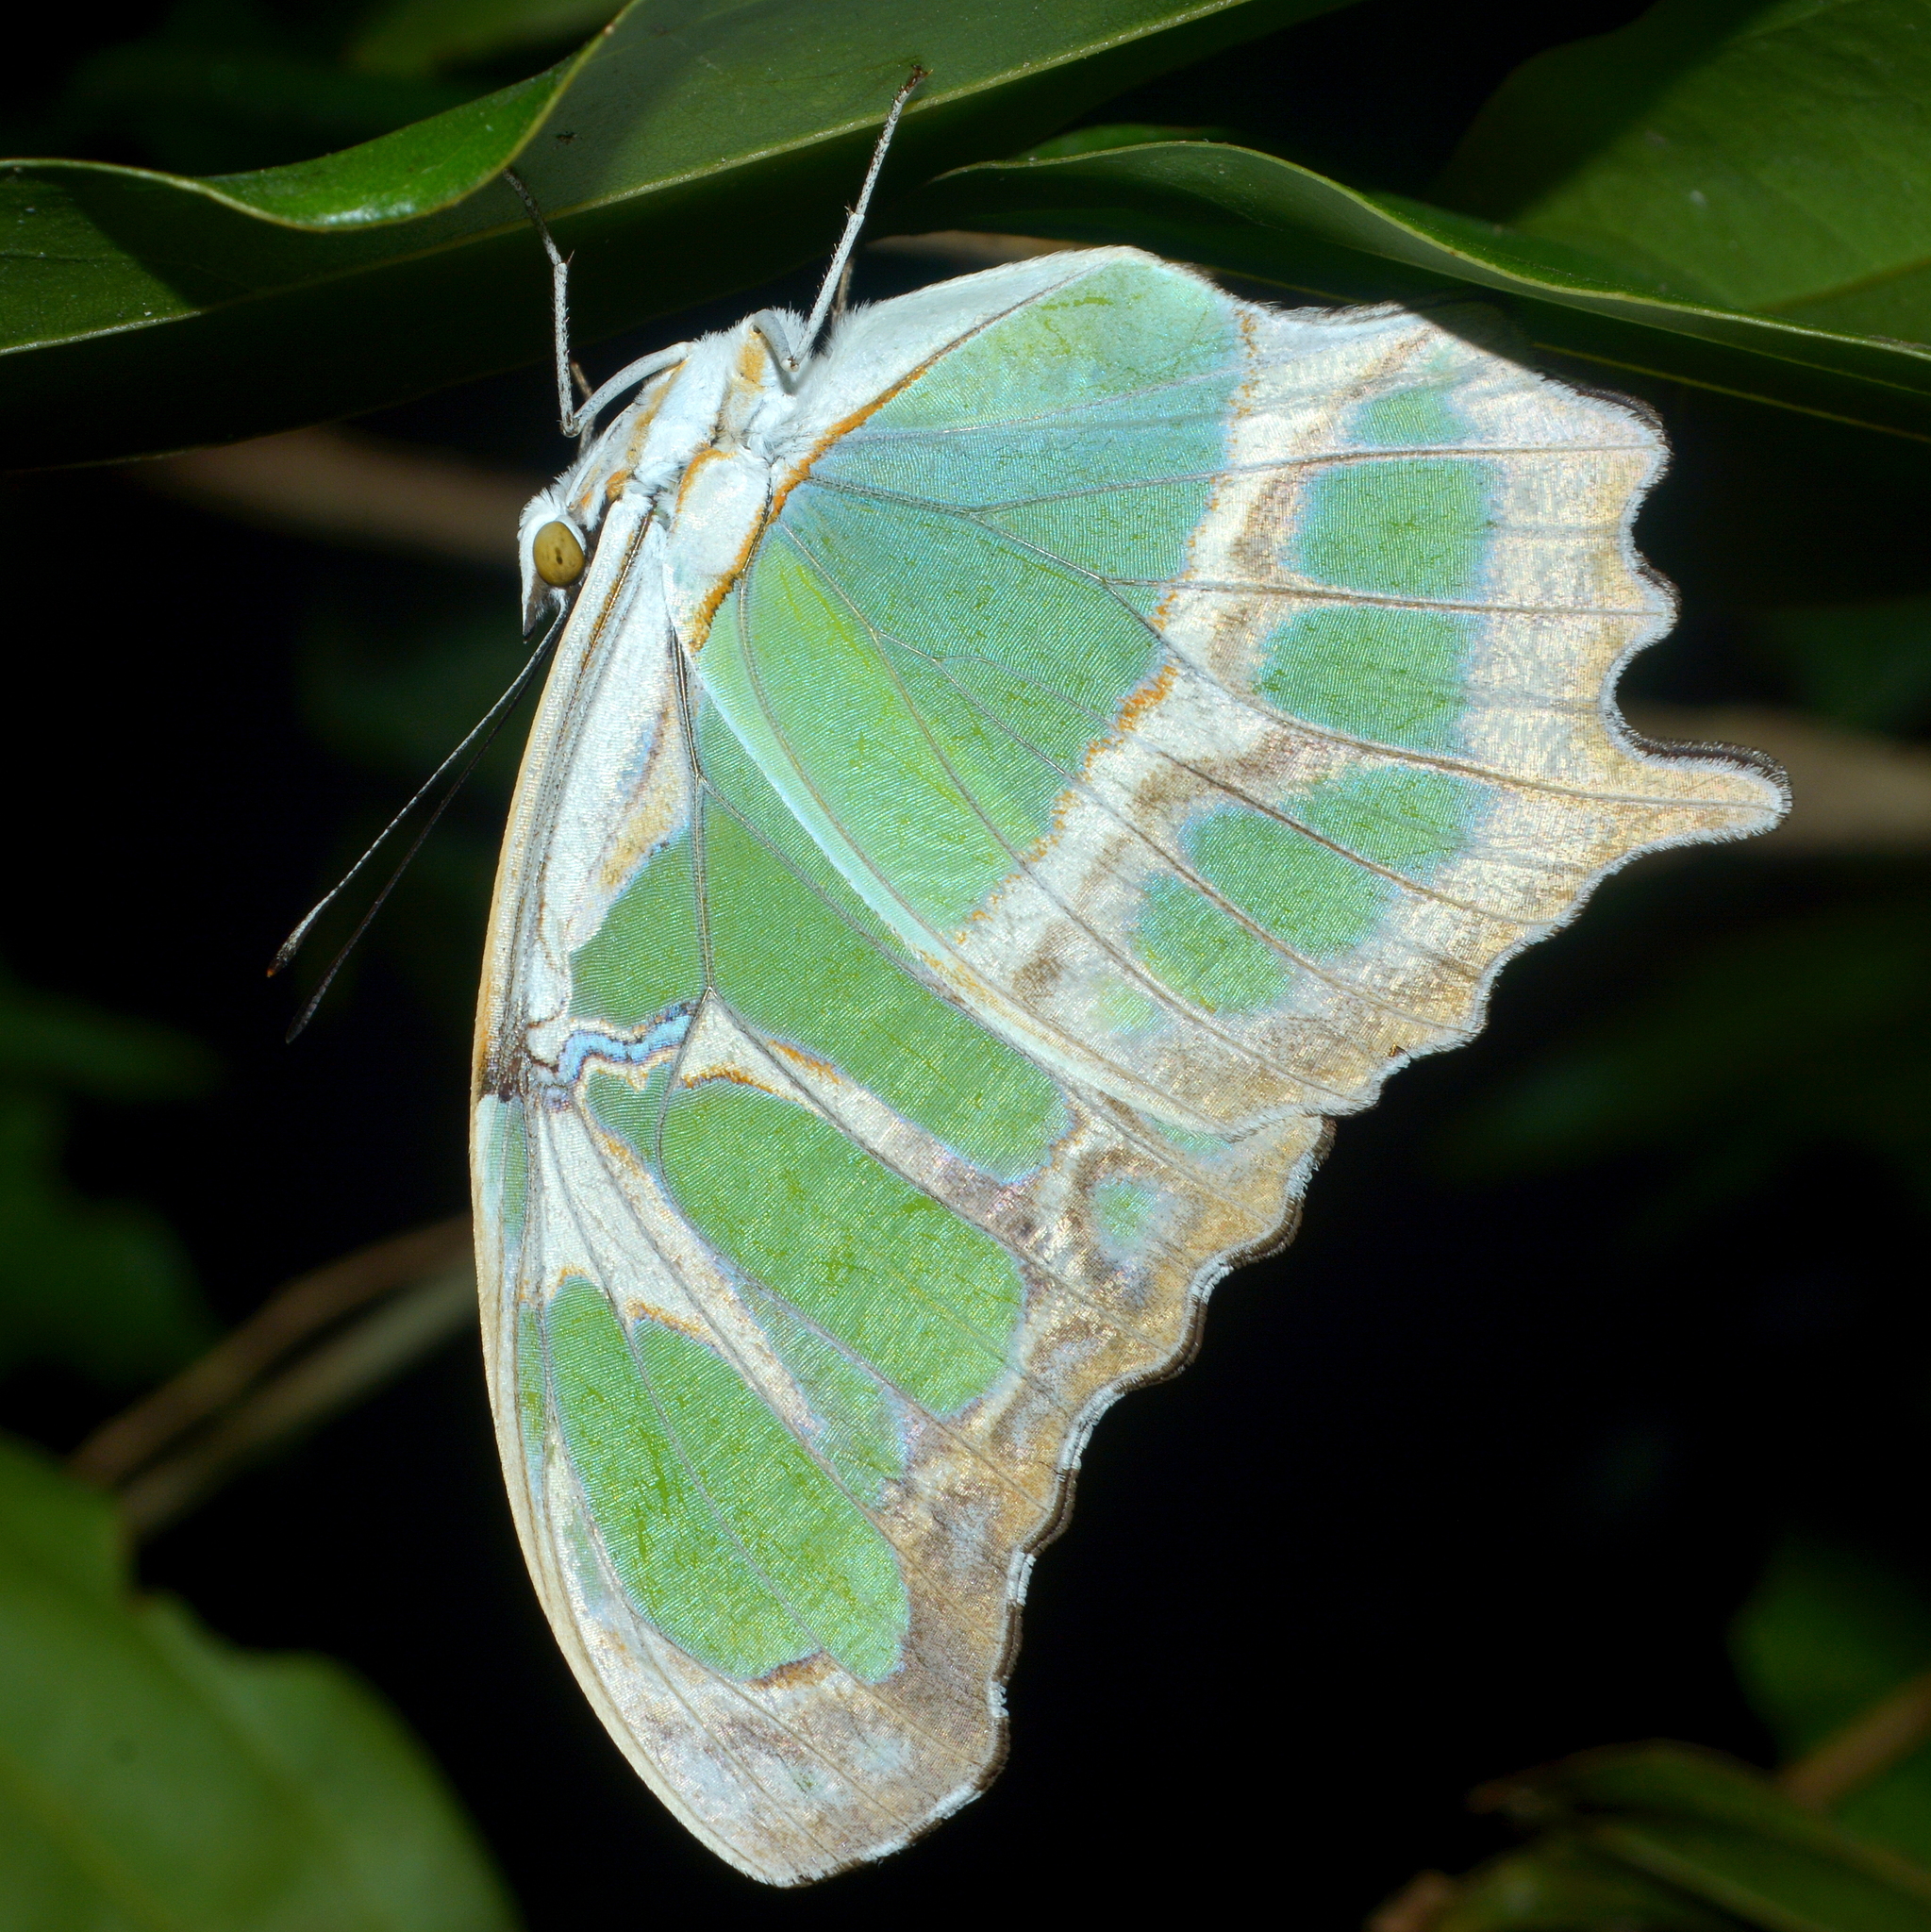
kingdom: Animalia
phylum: Arthropoda
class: Insecta
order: Lepidoptera
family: Nymphalidae
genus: Siproeta
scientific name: Siproeta stelenes
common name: Malachite
